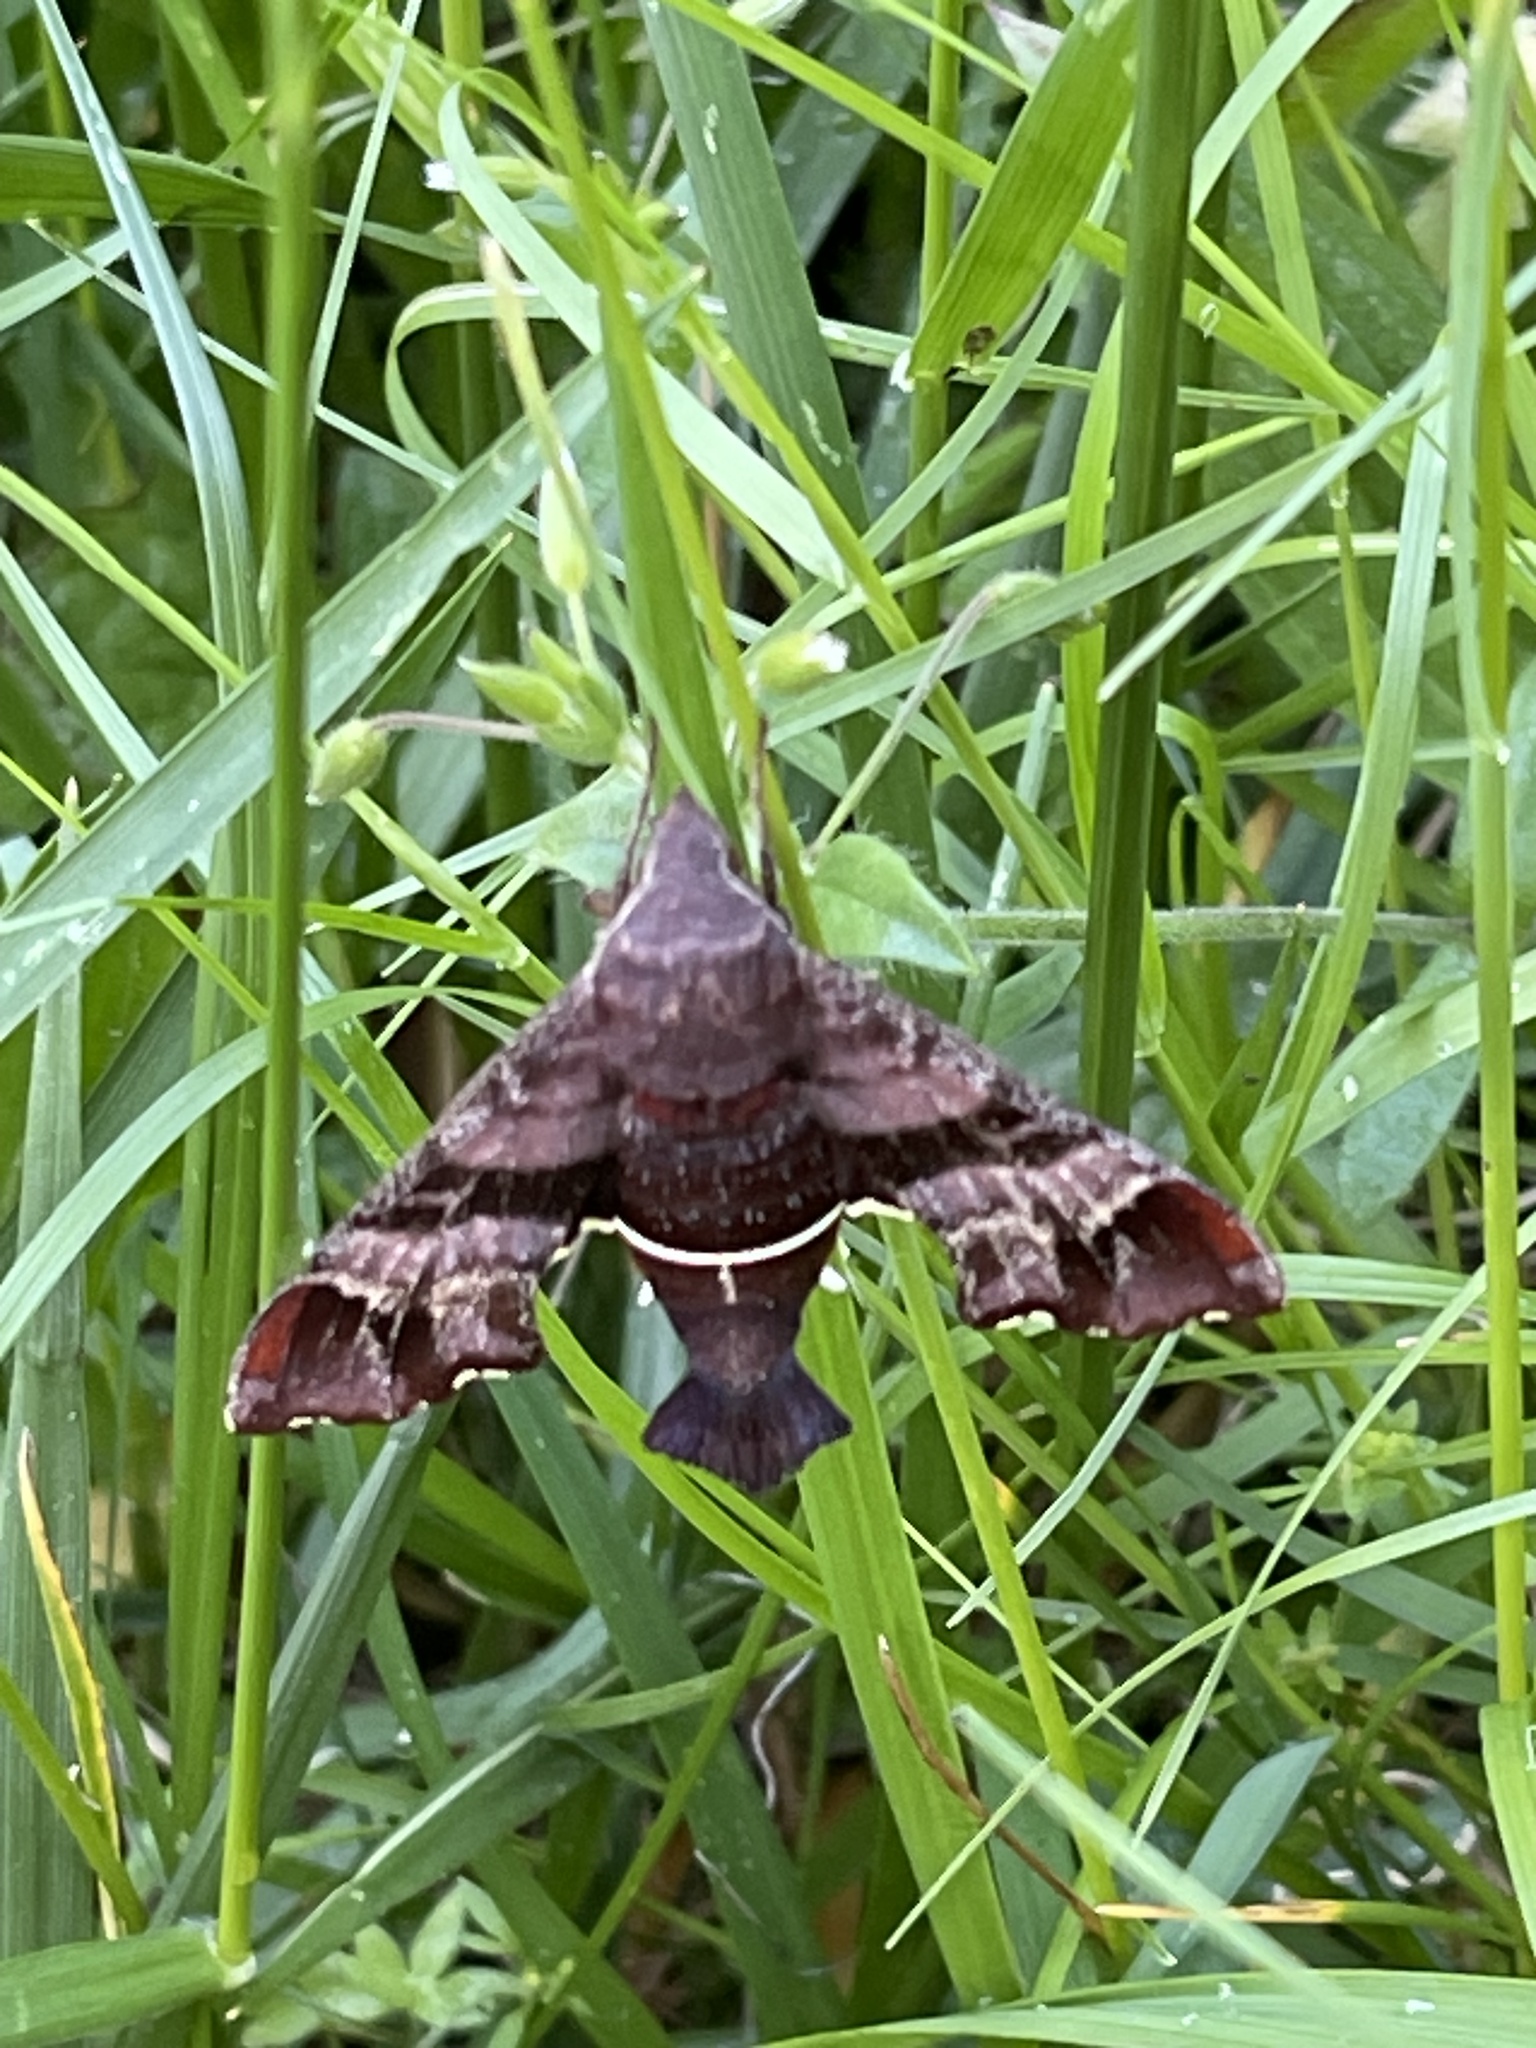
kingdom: Animalia
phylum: Arthropoda
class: Insecta
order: Lepidoptera
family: Sphingidae
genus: Amphion
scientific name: Amphion floridensis
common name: Nessus sphinx
